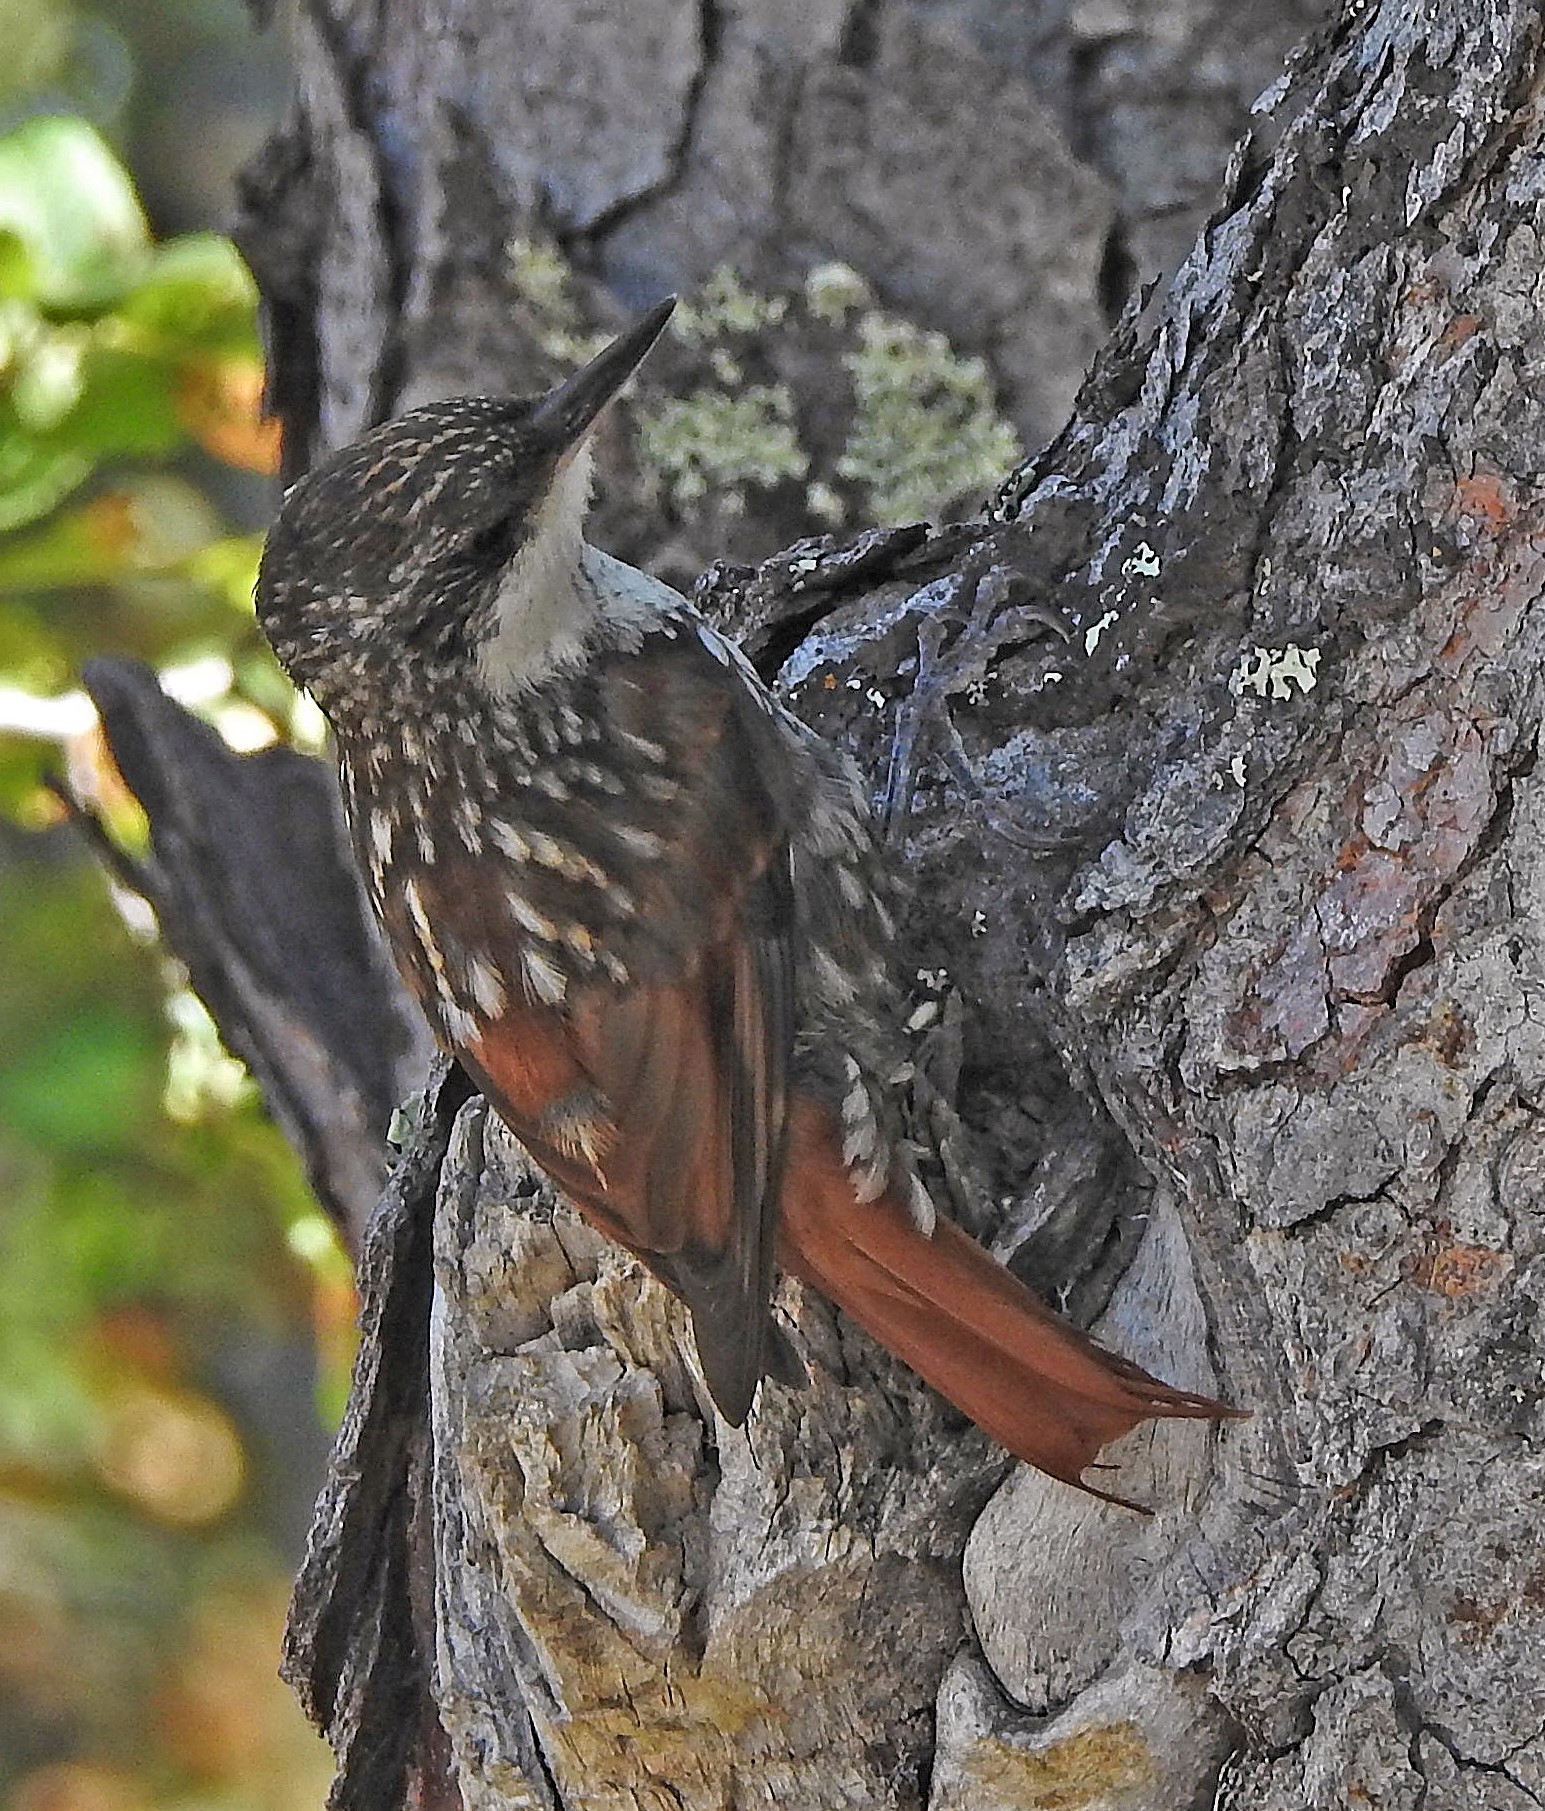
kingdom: Animalia
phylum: Chordata
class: Aves
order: Passeriformes
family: Furnariidae
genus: Pygarrhichas
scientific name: Pygarrhichas albogularis
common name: White-throated treerunner
